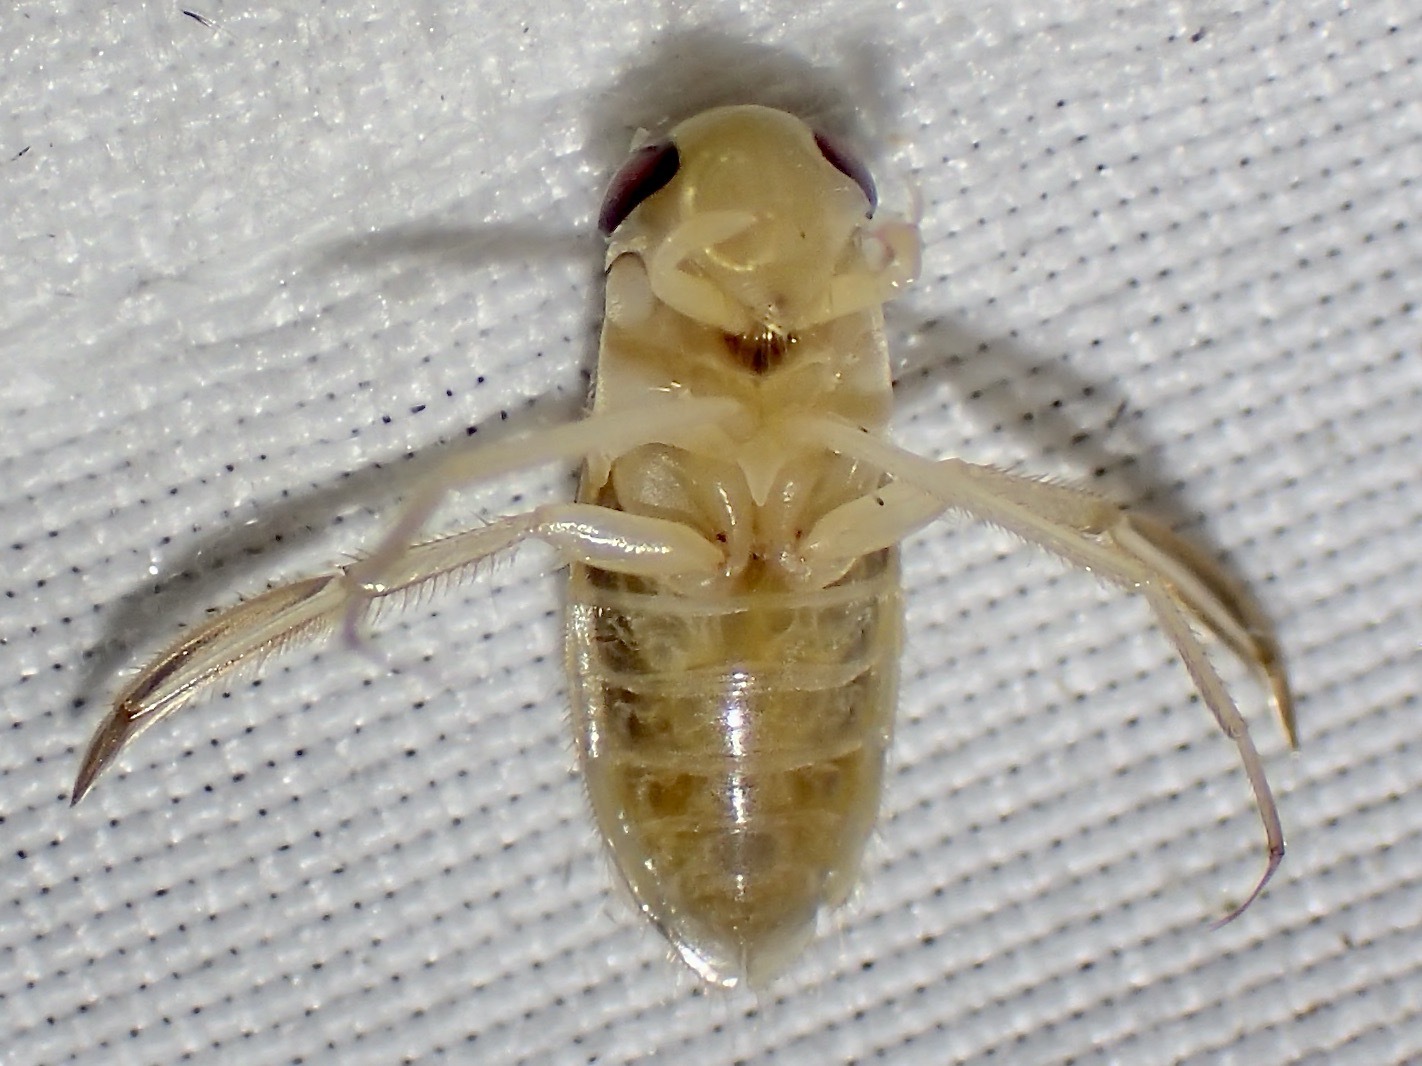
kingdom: Animalia
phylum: Arthropoda
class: Insecta
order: Hemiptera
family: Corixidae
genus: Corisella
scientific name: Corisella
